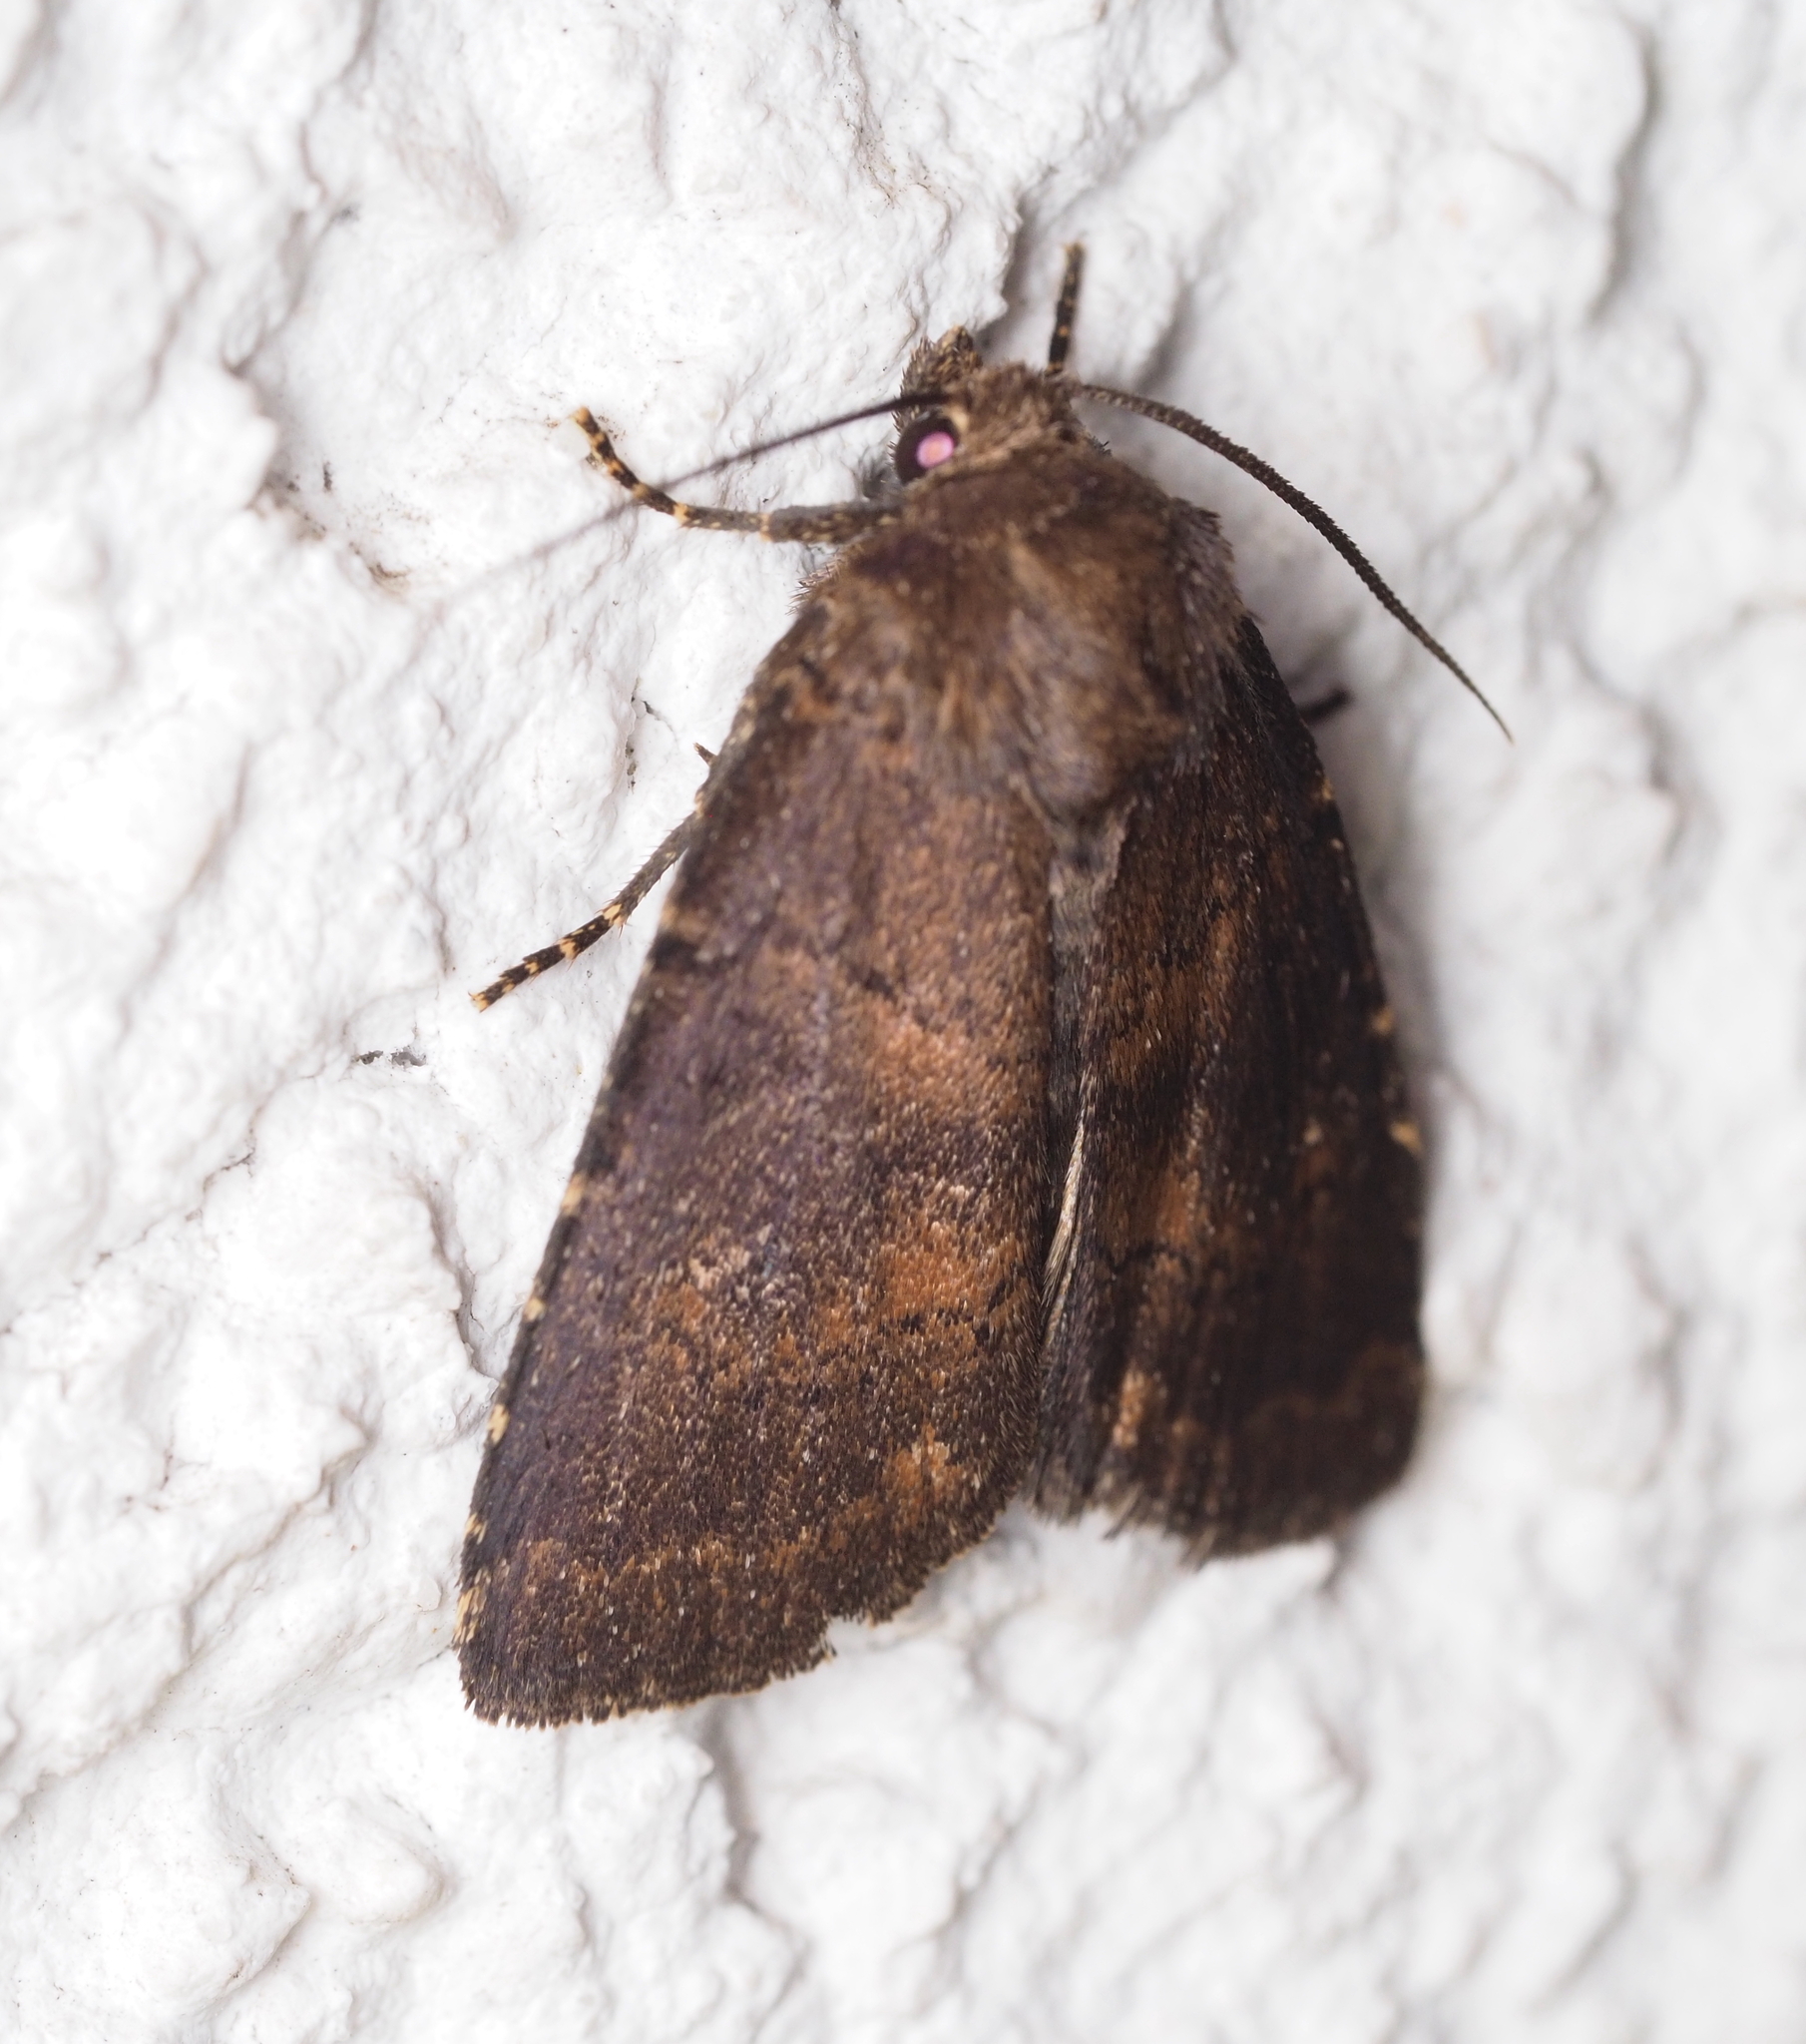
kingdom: Animalia
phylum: Arthropoda
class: Insecta
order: Lepidoptera
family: Noctuidae
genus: Charanyca
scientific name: Charanyca ferruginea
